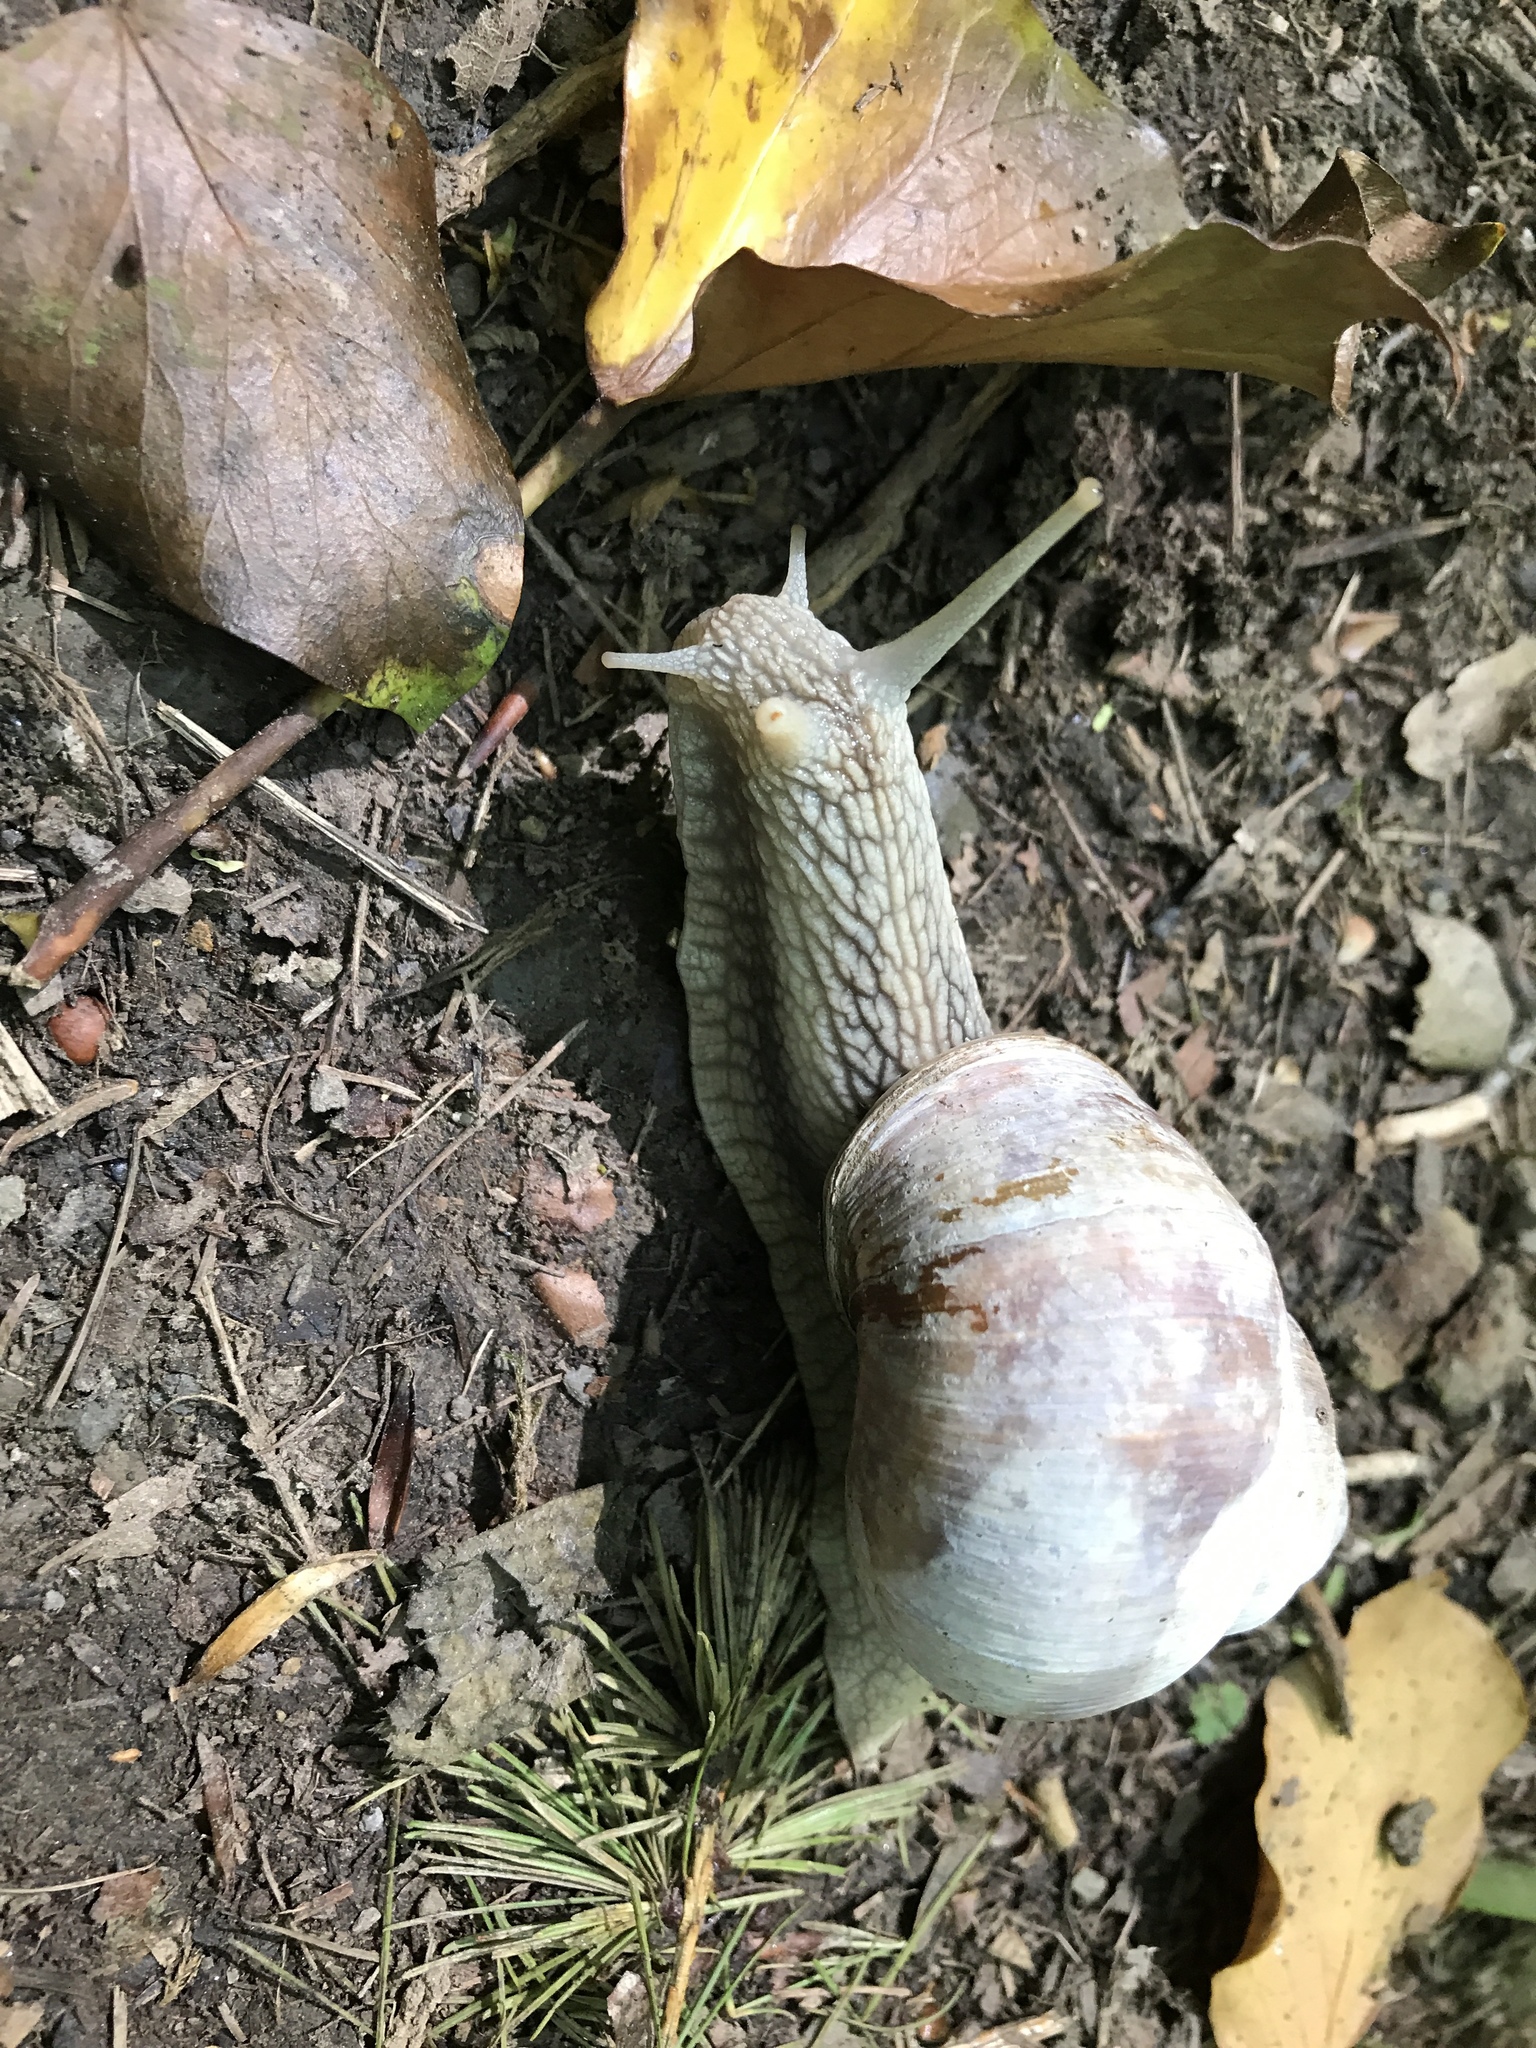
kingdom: Animalia
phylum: Mollusca
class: Gastropoda
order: Stylommatophora
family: Helicidae
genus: Helix
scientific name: Helix pomatia
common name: Roman snail
